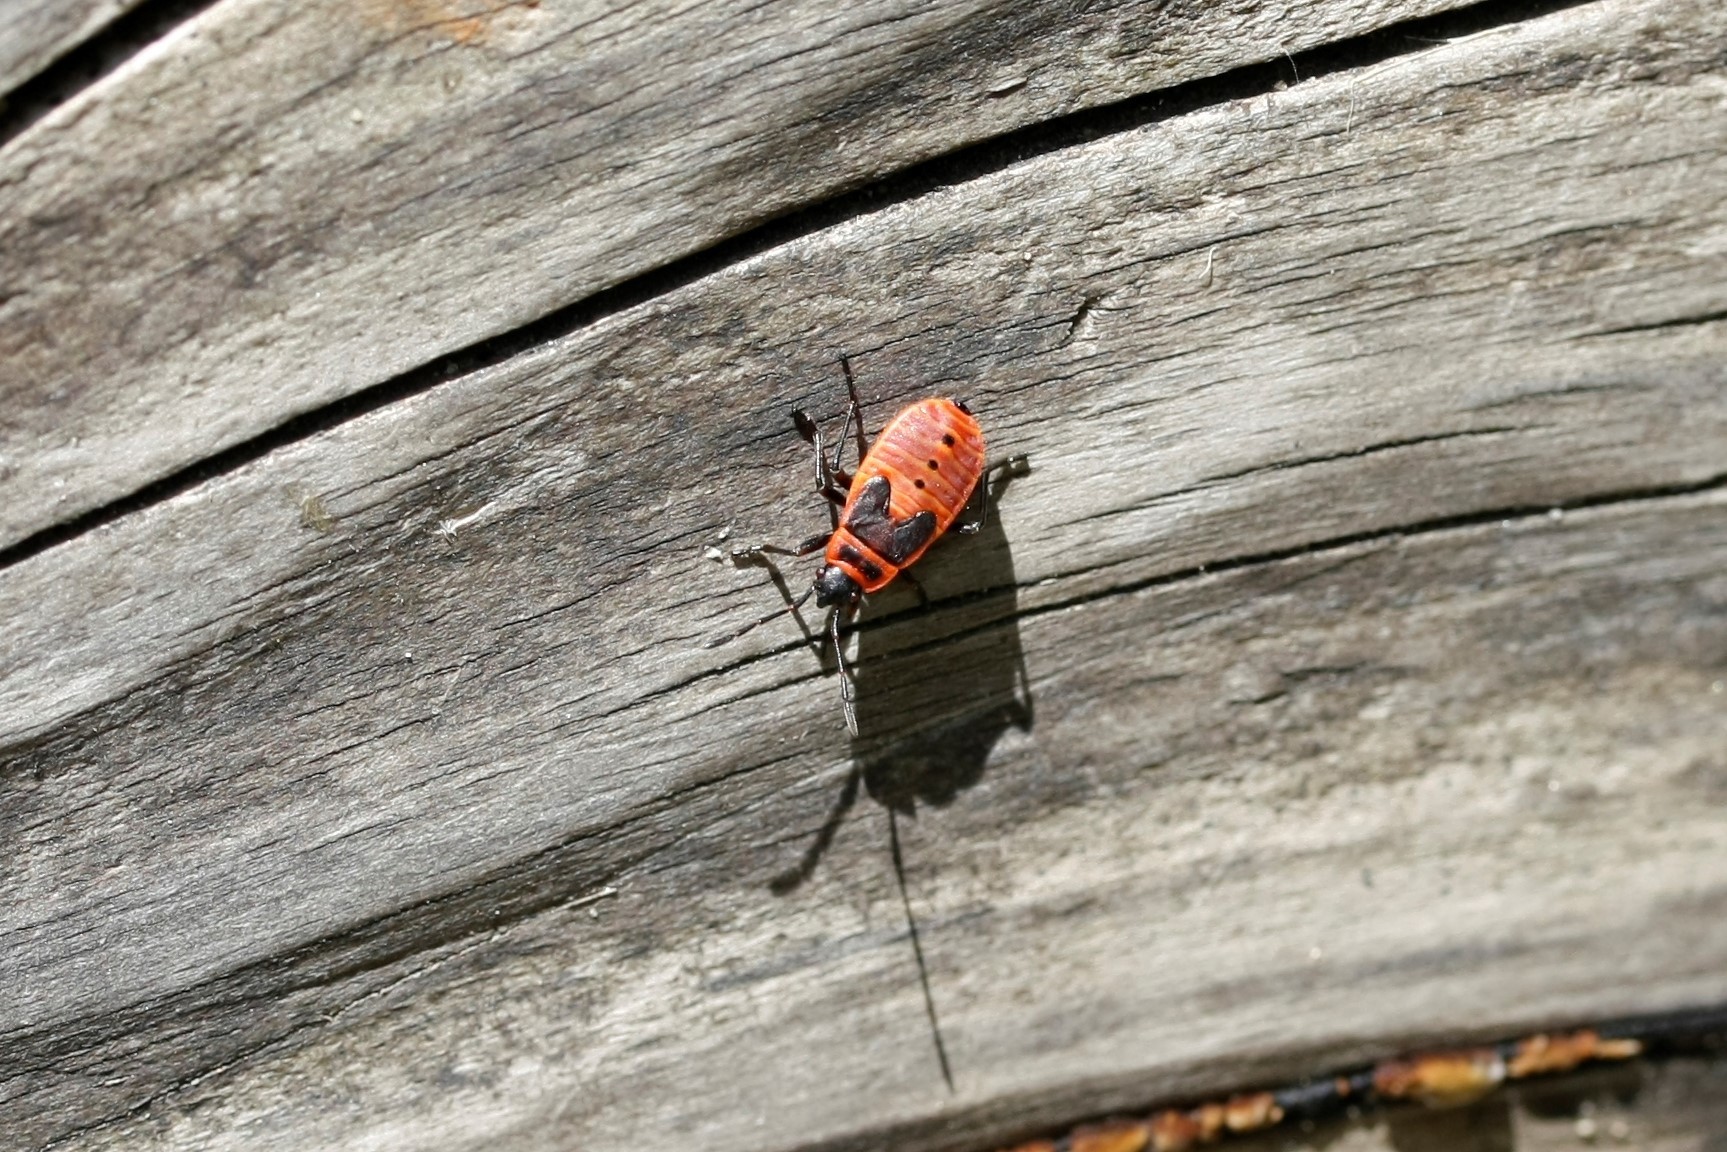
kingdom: Animalia
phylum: Arthropoda
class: Insecta
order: Hemiptera
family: Pyrrhocoridae
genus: Pyrrhocoris
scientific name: Pyrrhocoris apterus
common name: Firebug
